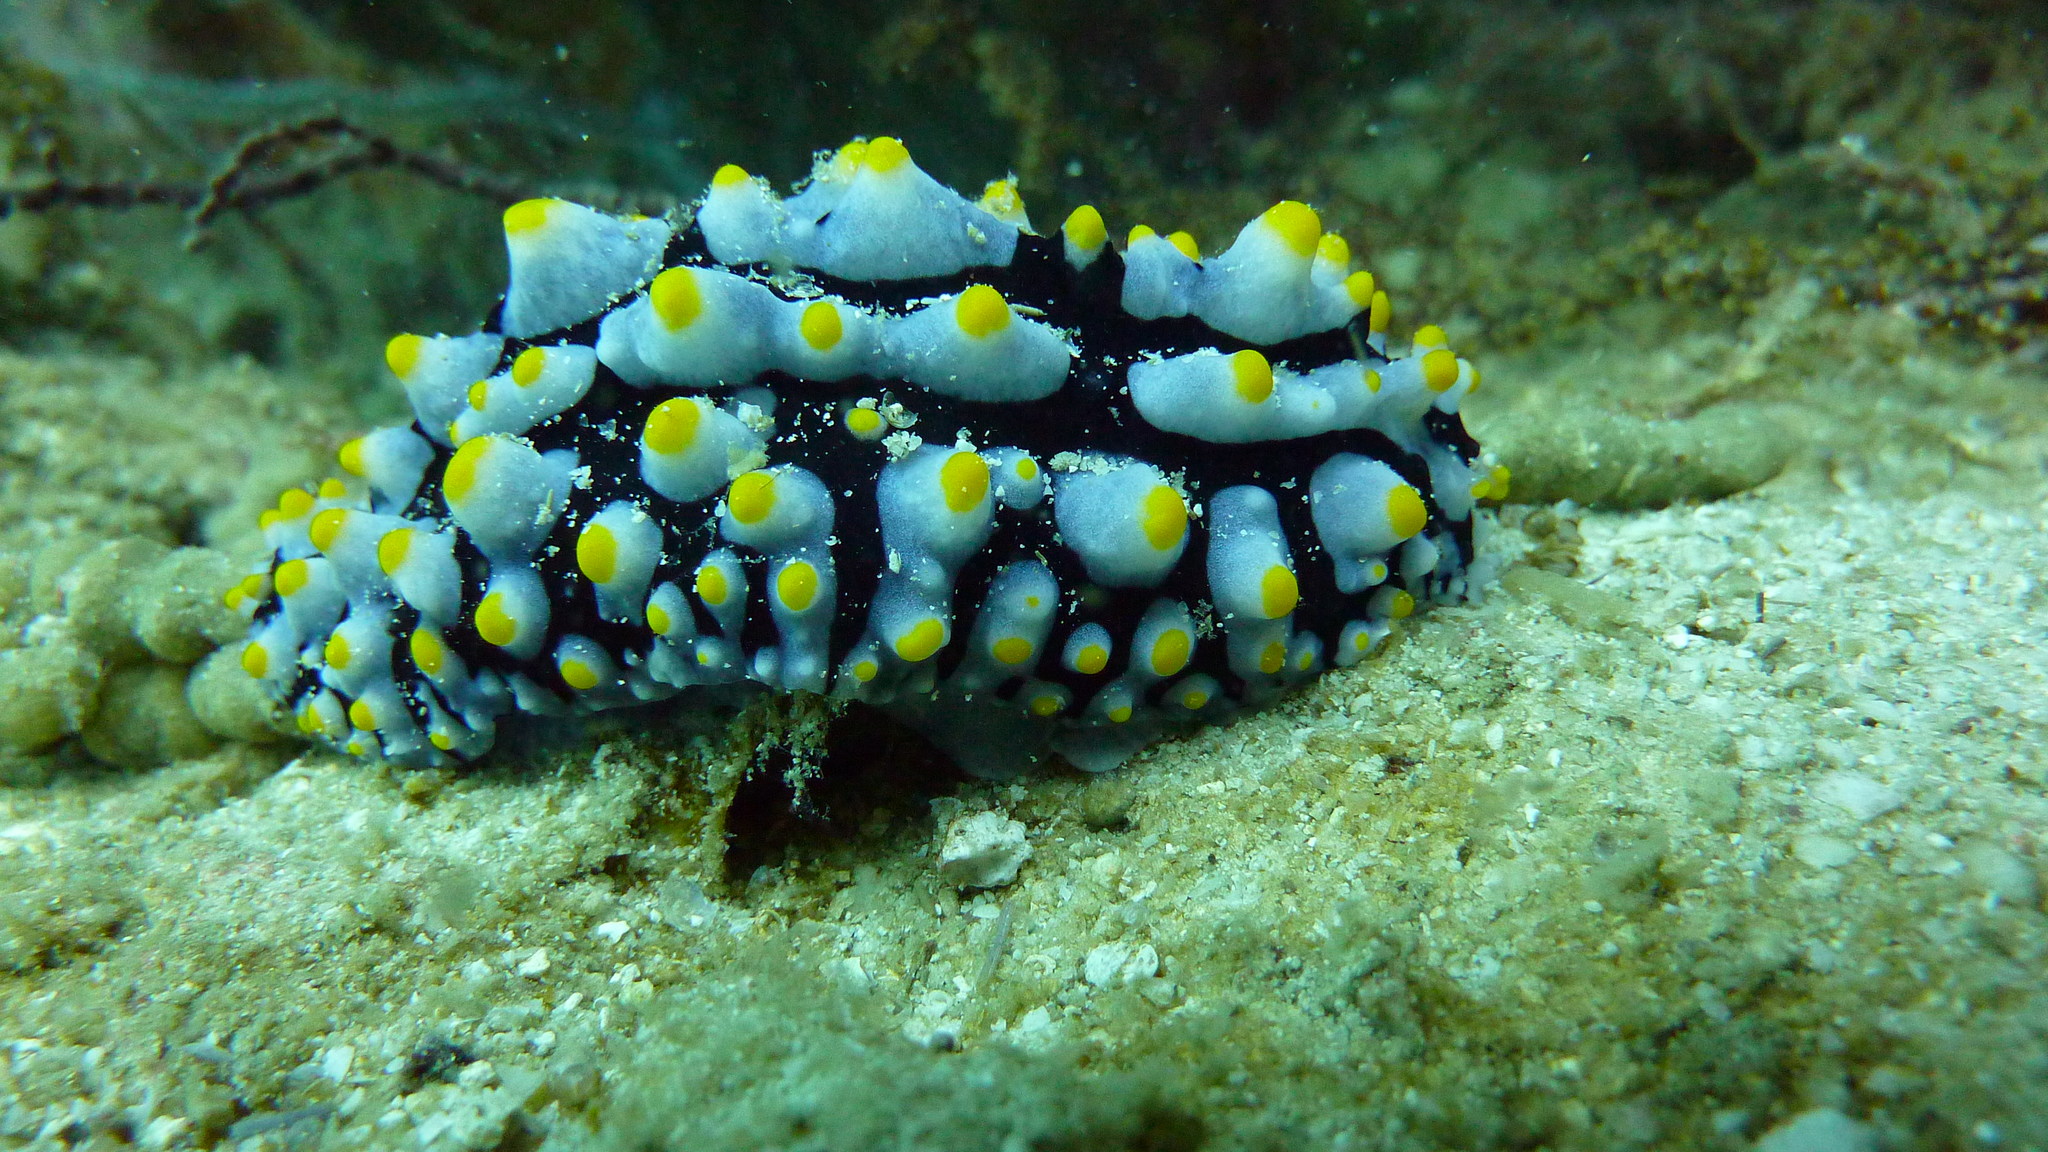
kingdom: Animalia
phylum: Mollusca
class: Gastropoda
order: Nudibranchia
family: Phyllidiidae
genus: Phyllidia
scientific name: Phyllidia varicosa
